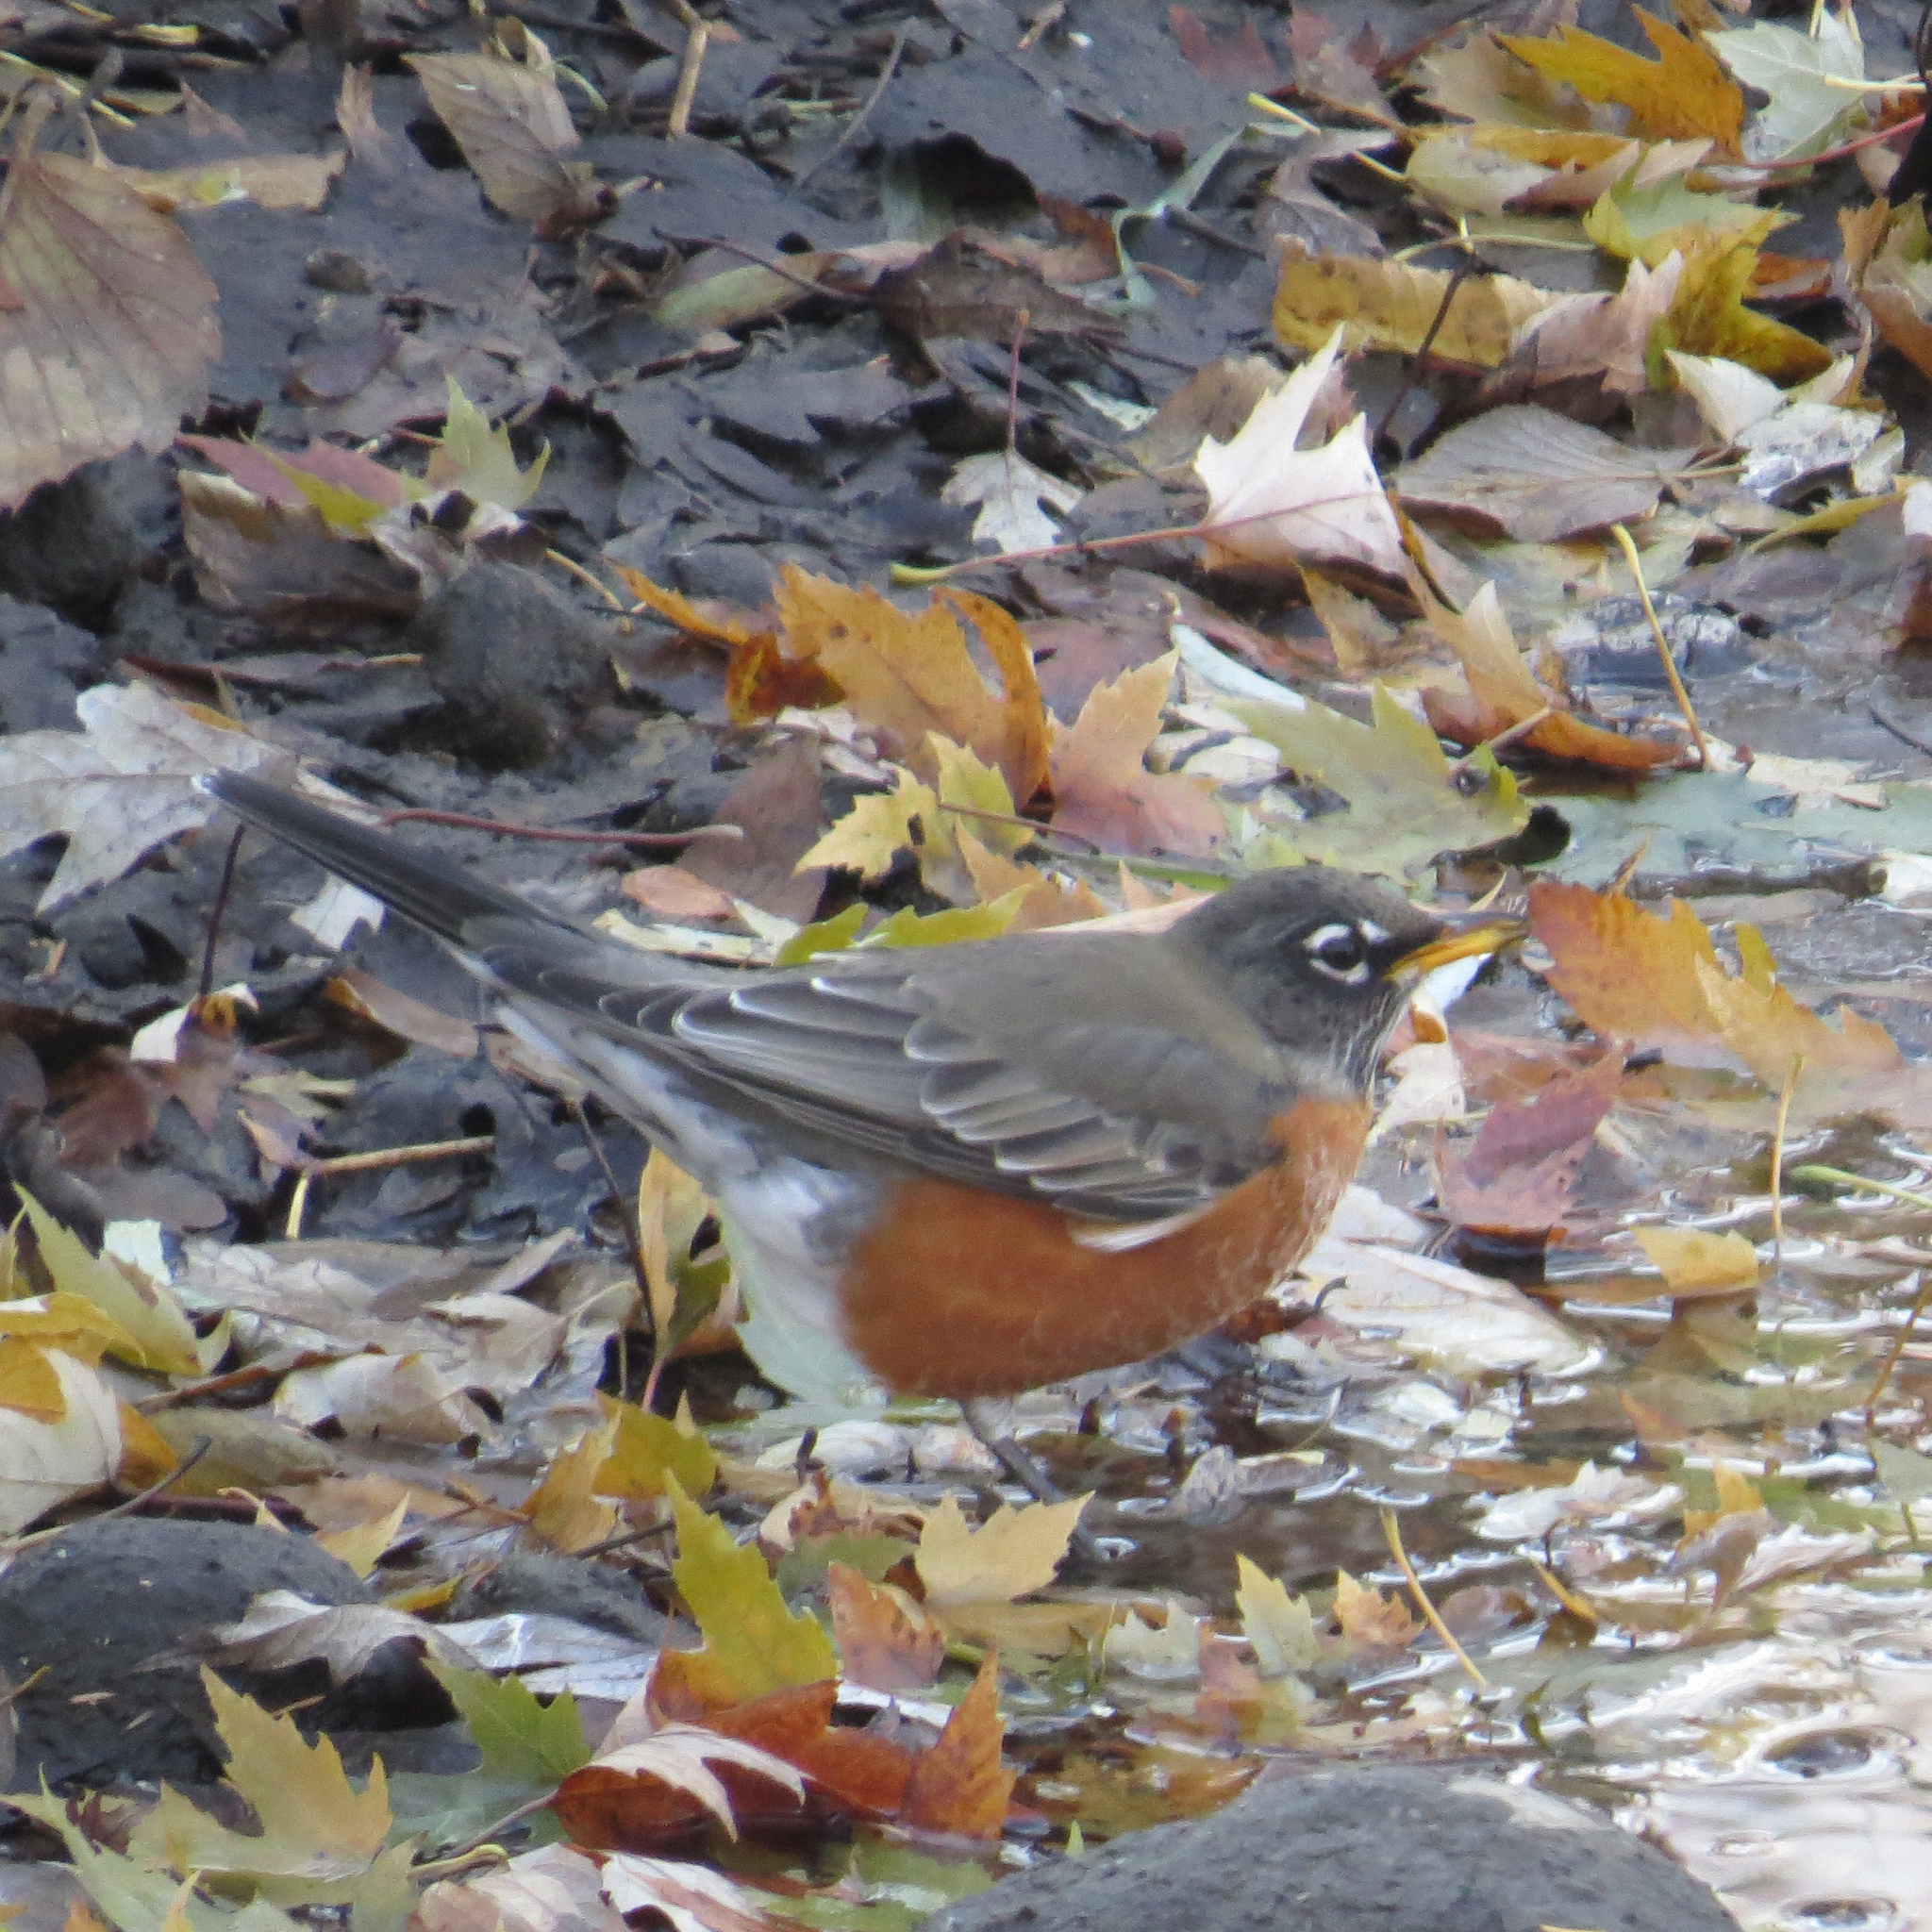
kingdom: Animalia
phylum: Chordata
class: Aves
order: Passeriformes
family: Turdidae
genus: Turdus
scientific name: Turdus migratorius
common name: American robin
